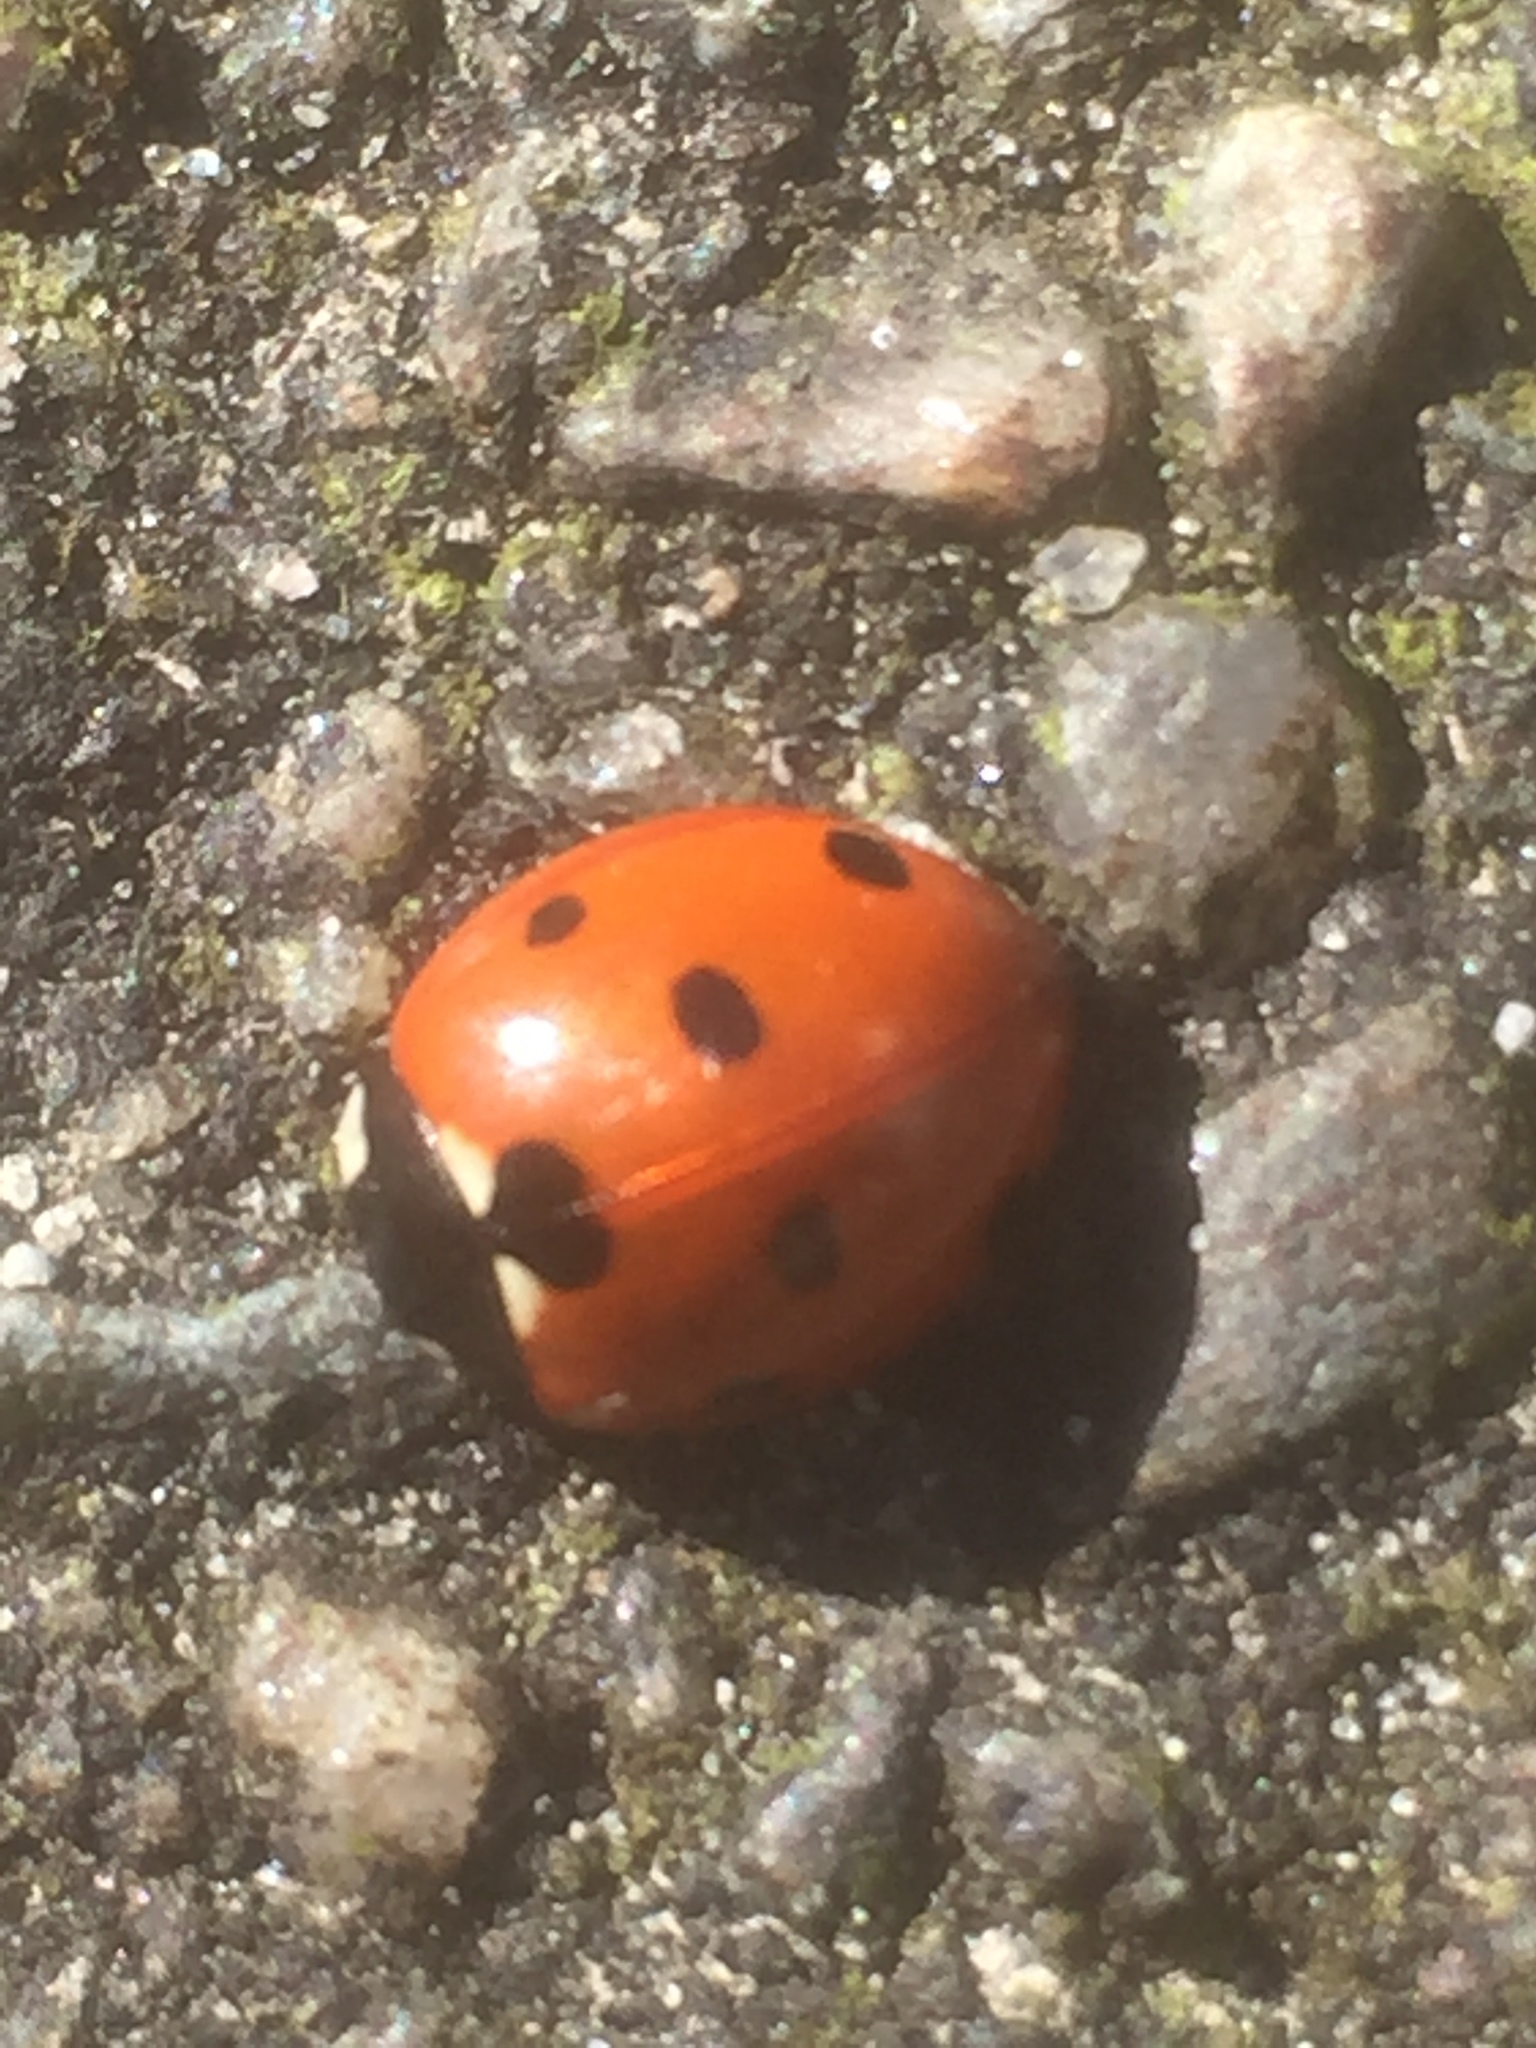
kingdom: Animalia
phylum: Arthropoda
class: Insecta
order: Coleoptera
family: Coccinellidae
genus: Coccinella
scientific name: Coccinella septempunctata
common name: Sevenspotted lady beetle
